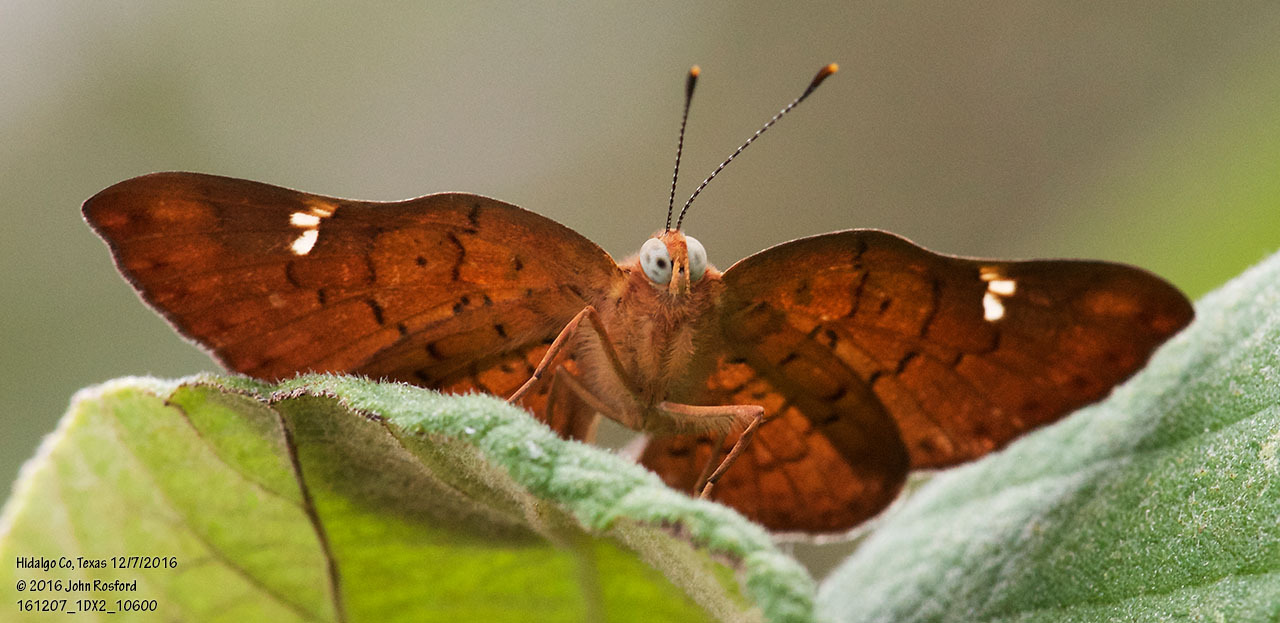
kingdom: Animalia
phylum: Arthropoda
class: Insecta
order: Lepidoptera
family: Riodinidae
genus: Curvie
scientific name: Curvie emesia
